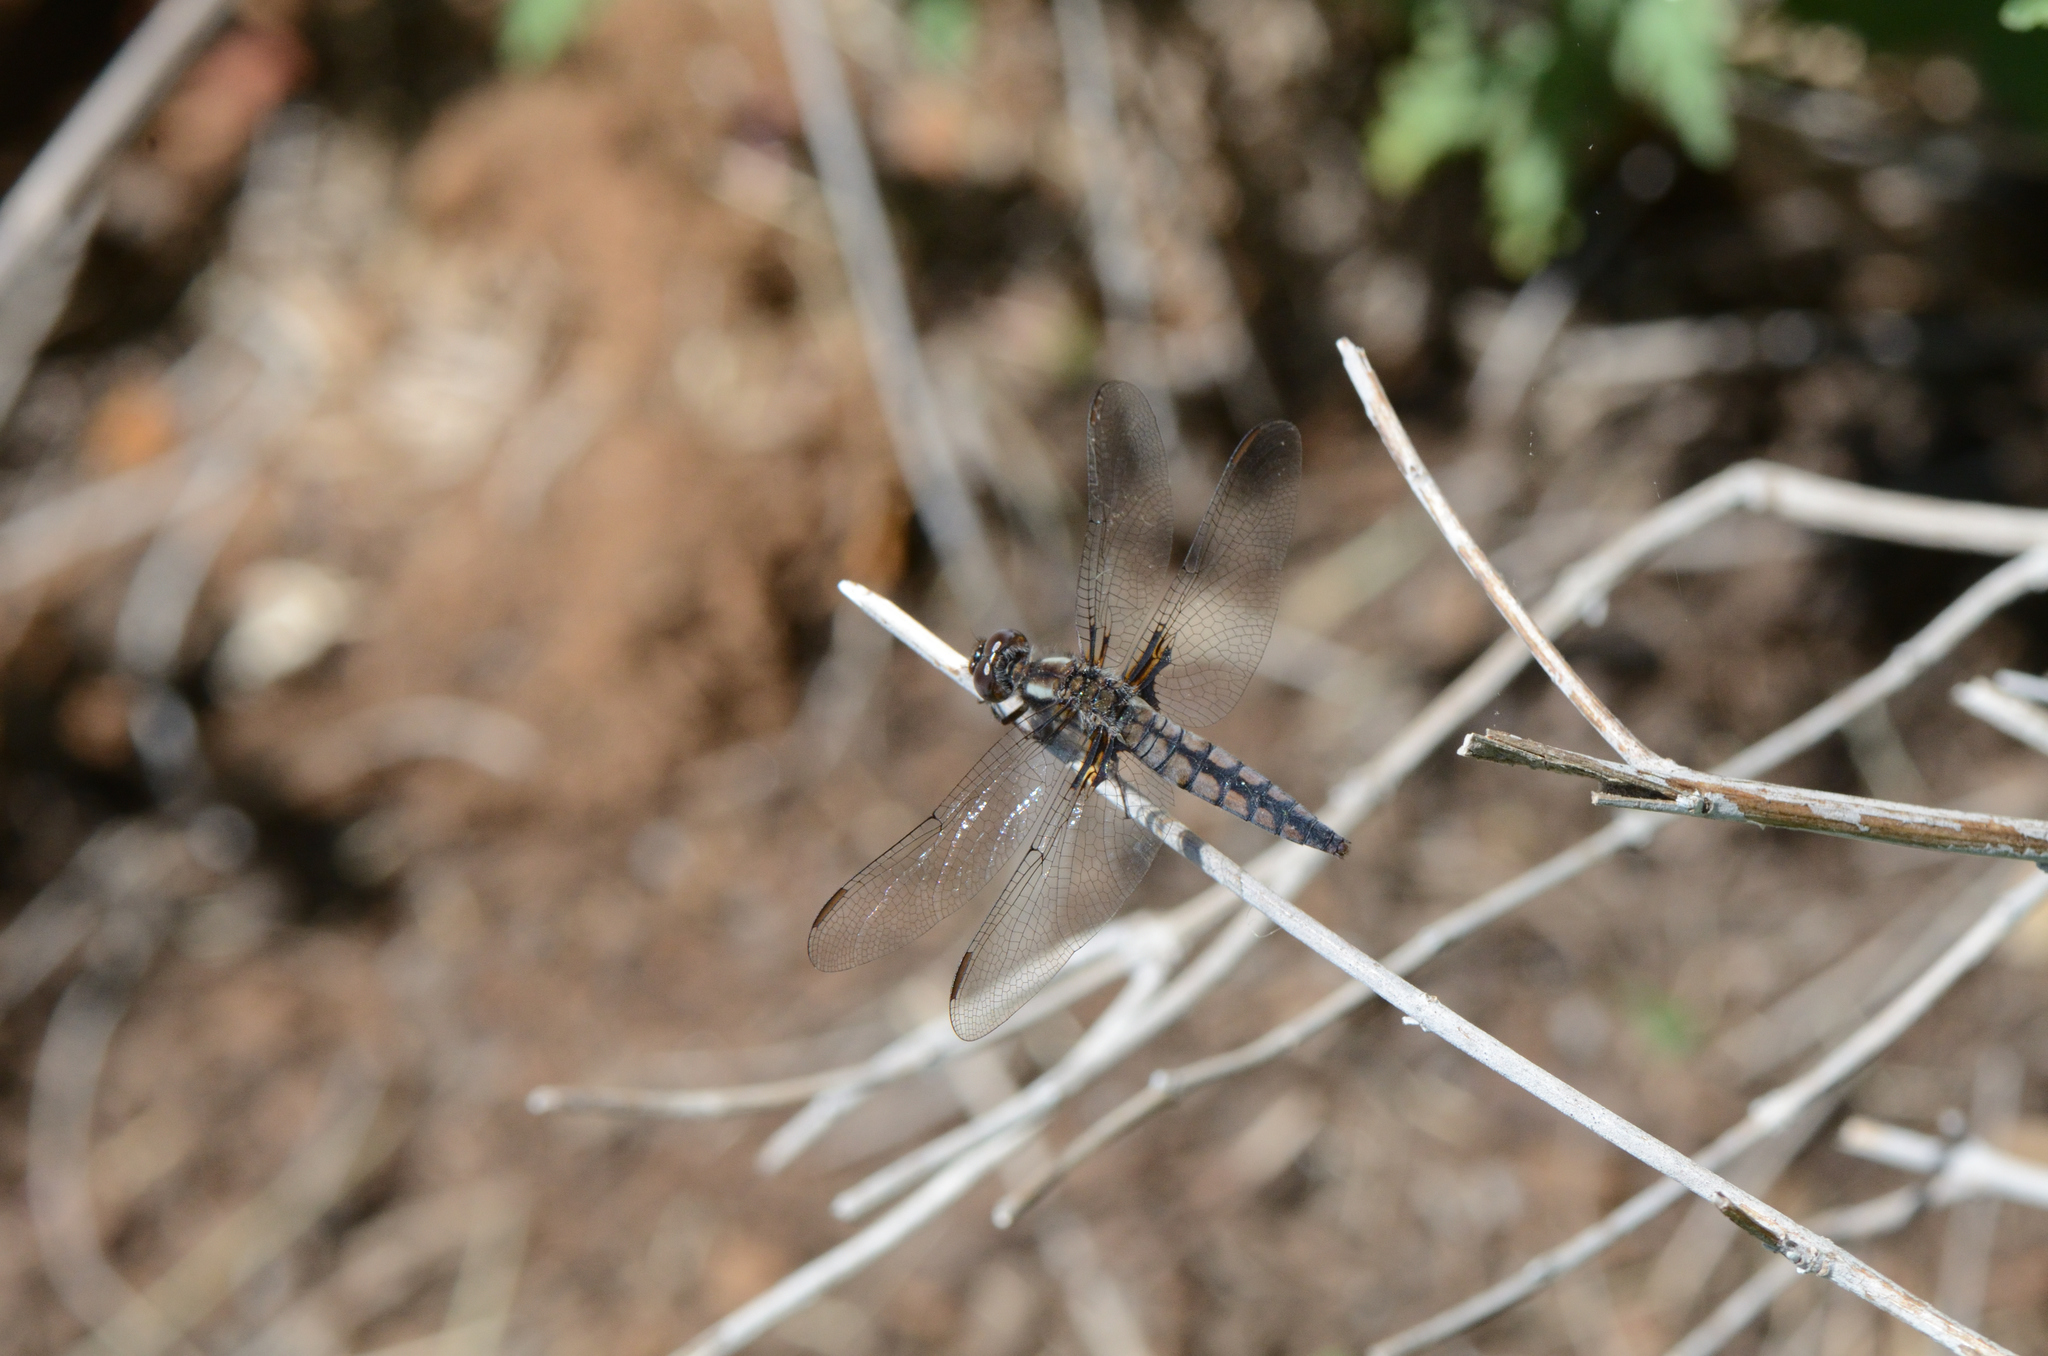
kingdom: Animalia
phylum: Arthropoda
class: Insecta
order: Odonata
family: Libellulidae
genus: Ladona
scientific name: Ladona deplanata
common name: Blue corporal
